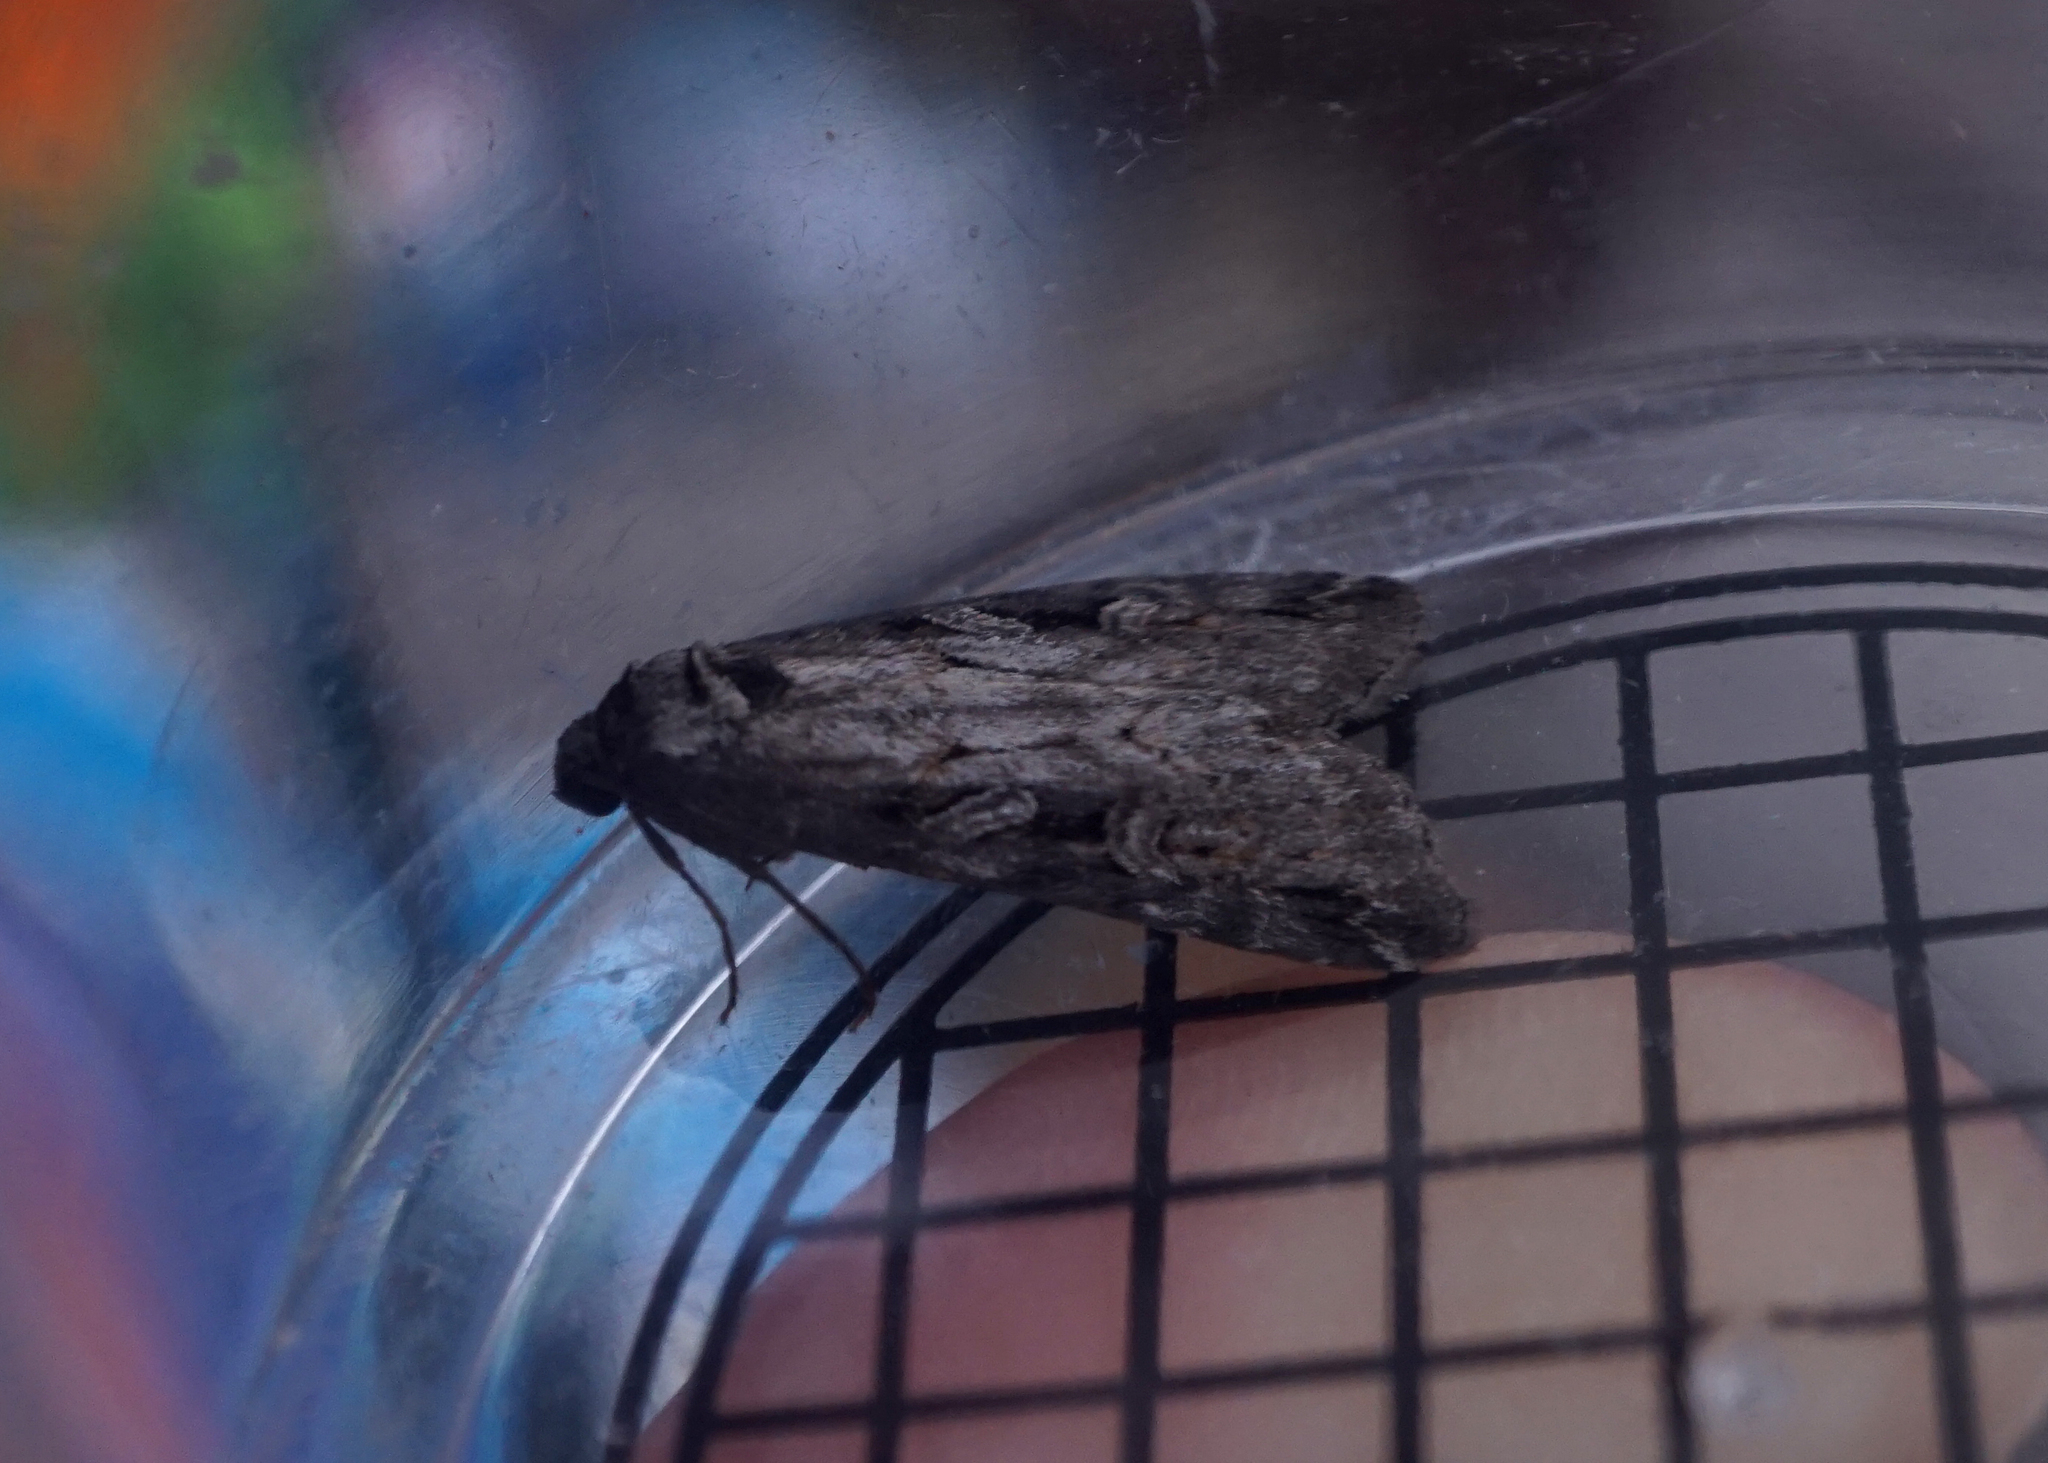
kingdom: Animalia
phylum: Arthropoda
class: Insecta
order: Lepidoptera
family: Noctuidae
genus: Stilbia
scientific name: Stilbia anomala
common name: Anomalous
